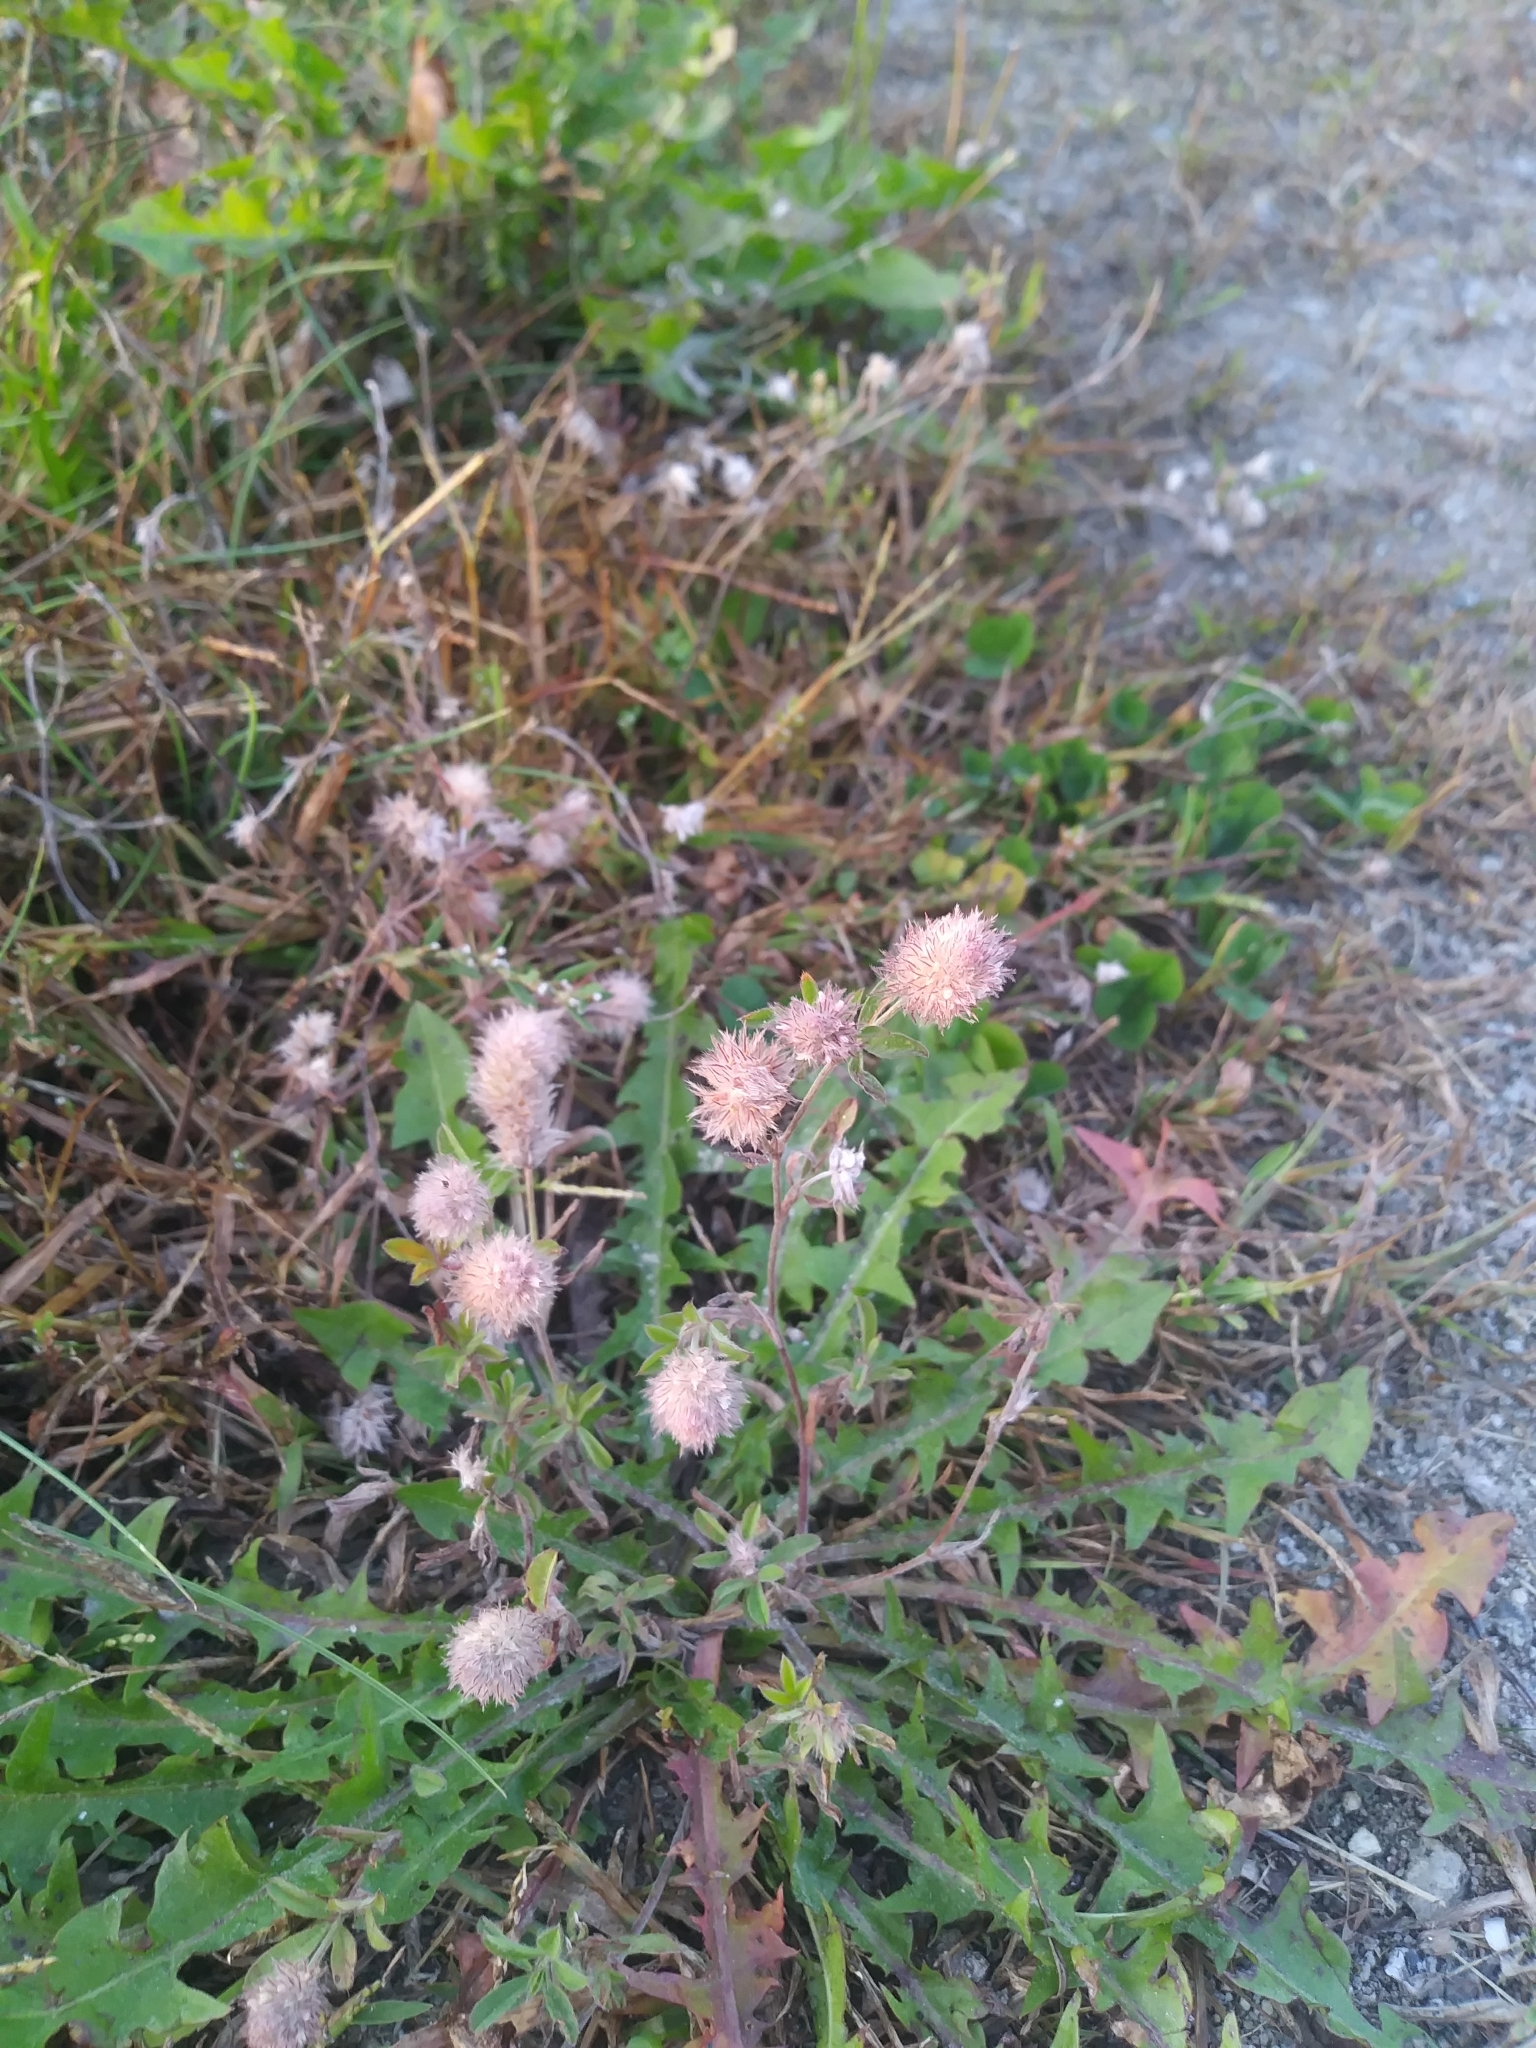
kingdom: Plantae
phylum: Tracheophyta
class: Magnoliopsida
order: Fabales
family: Fabaceae
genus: Trifolium
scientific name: Trifolium arvense
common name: Hare's-foot clover
